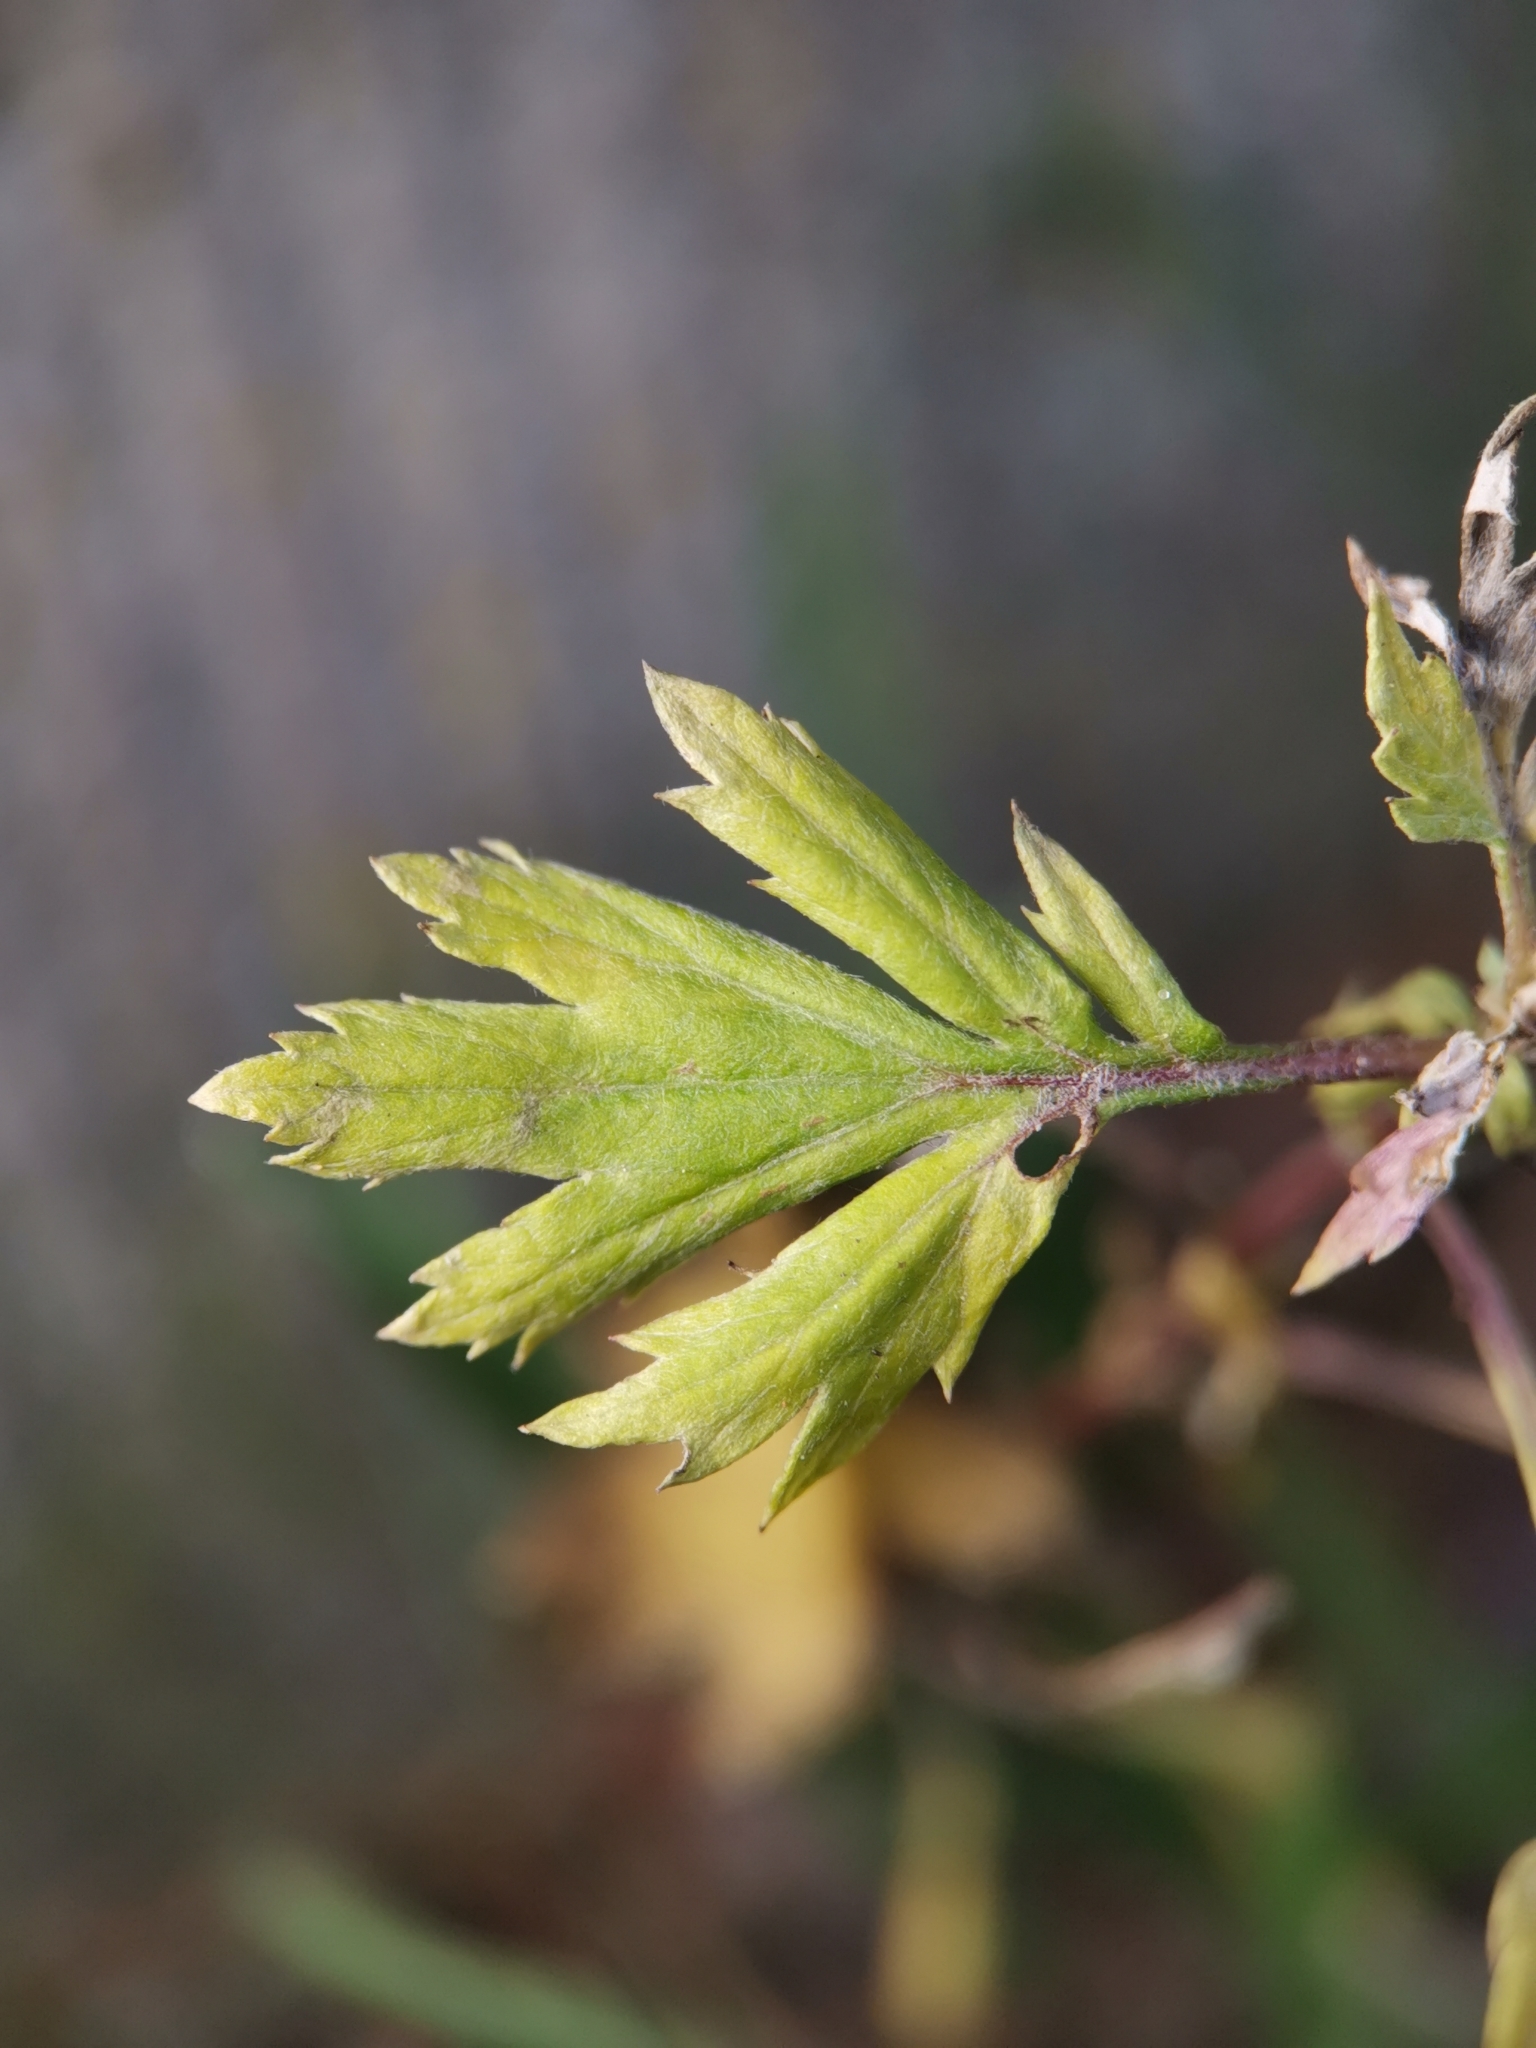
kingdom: Plantae
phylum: Tracheophyta
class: Magnoliopsida
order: Asterales
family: Asteraceae
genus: Artemisia
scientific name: Artemisia vulgaris
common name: Mugwort
